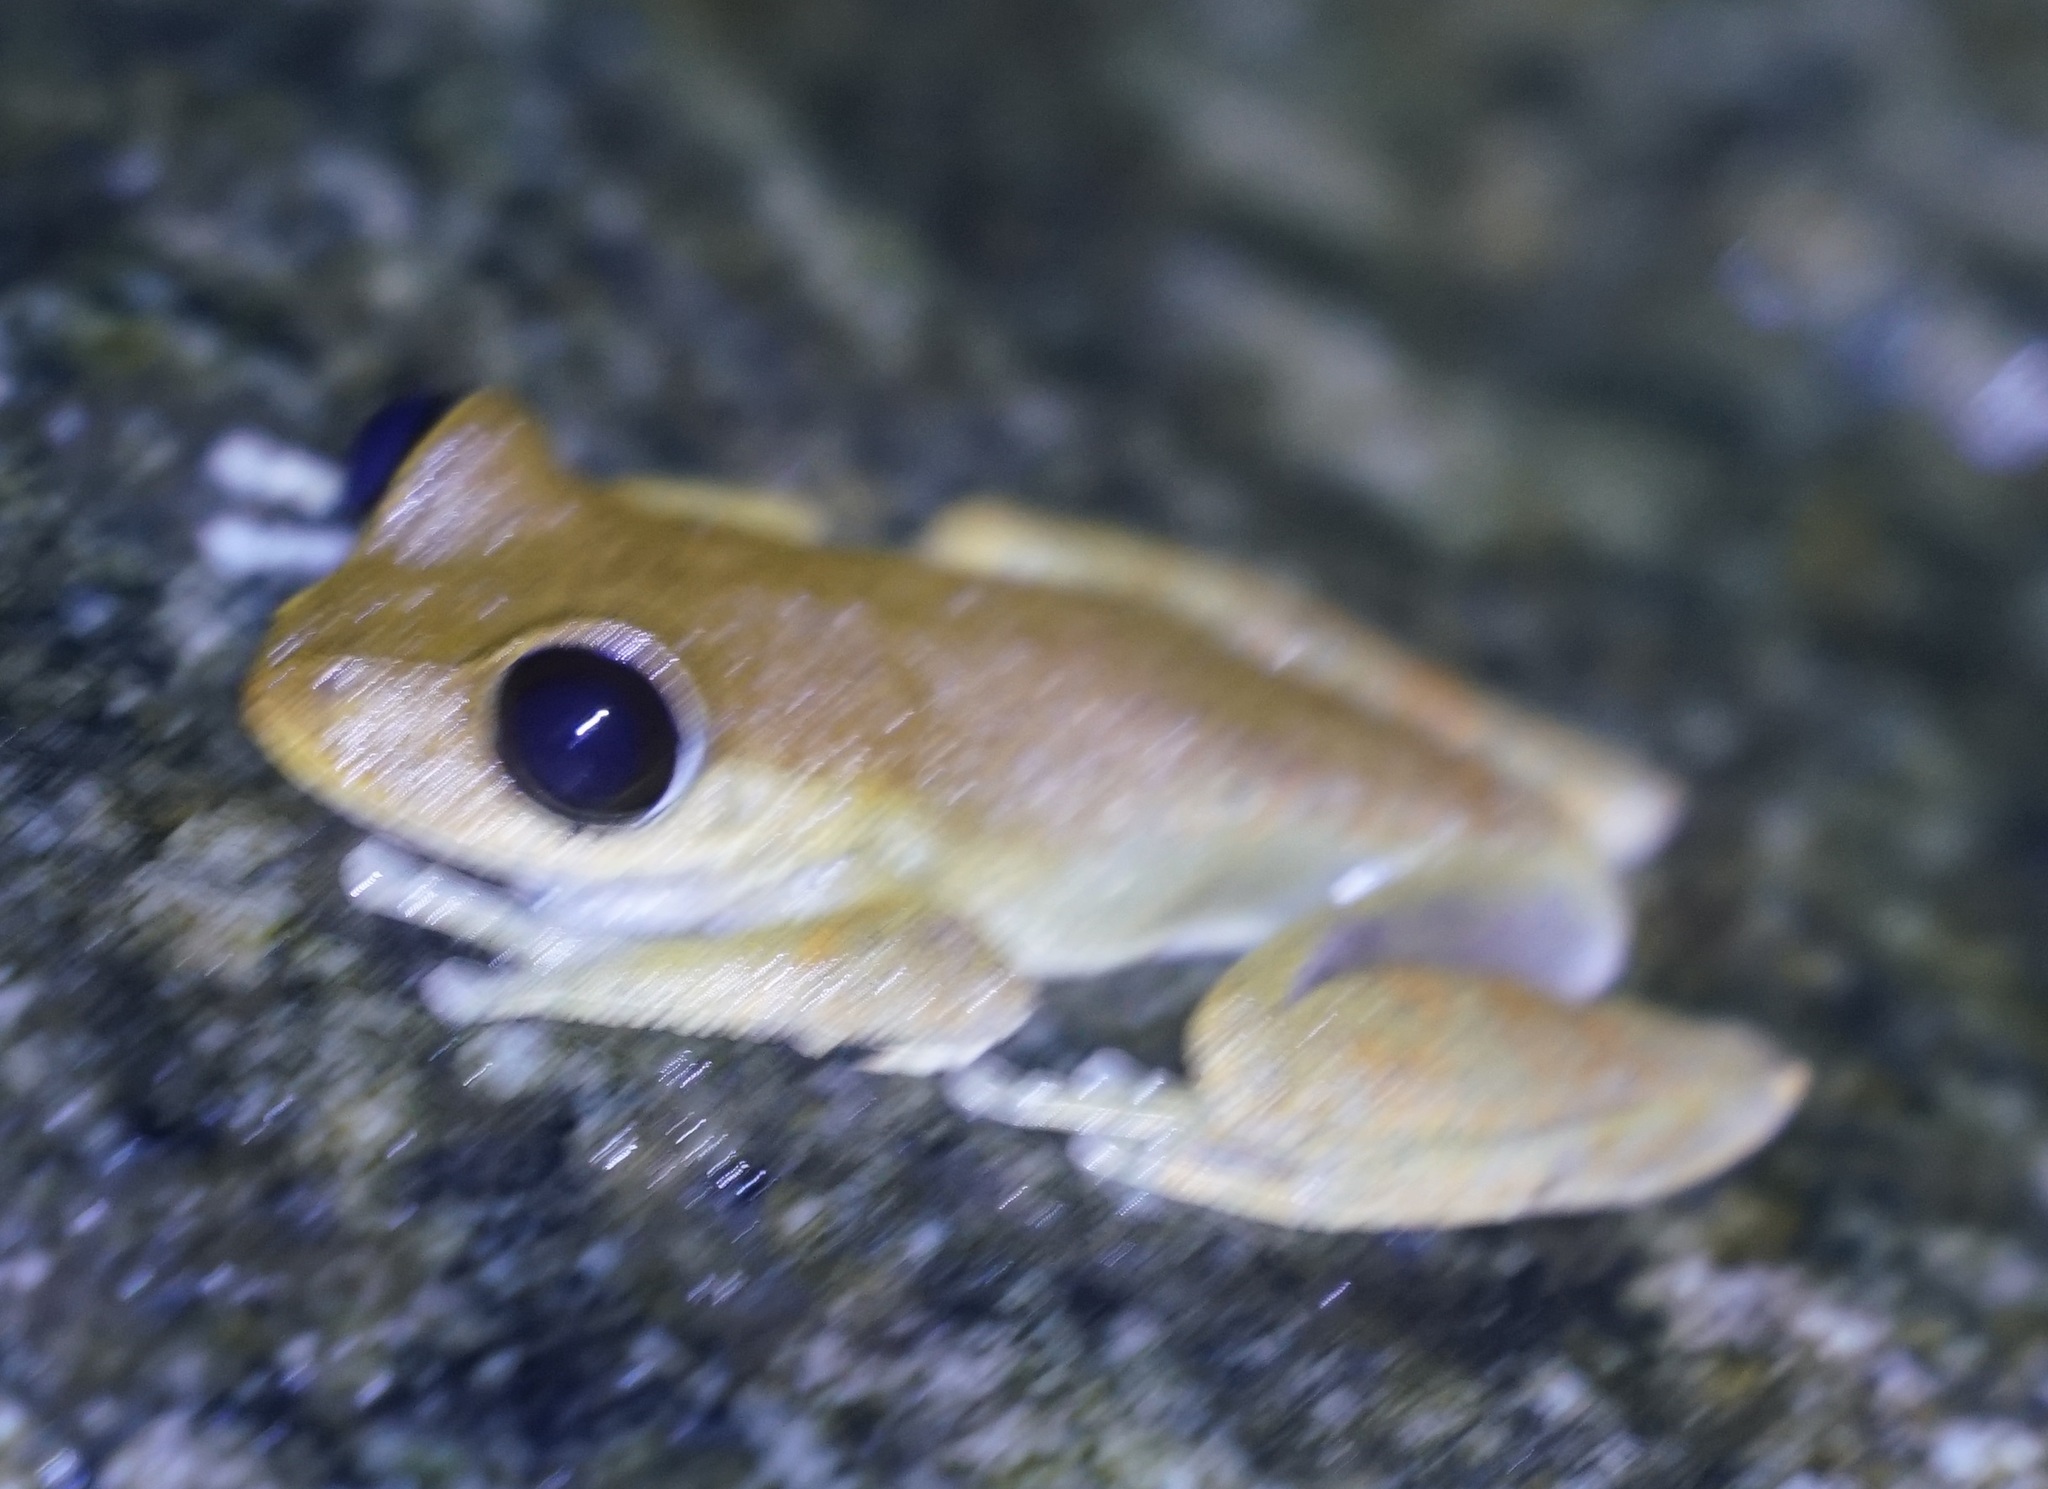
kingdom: Animalia
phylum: Chordata
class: Amphibia
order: Anura
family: Pelodryadidae
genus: Ranoidea
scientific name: Ranoidea dayi
